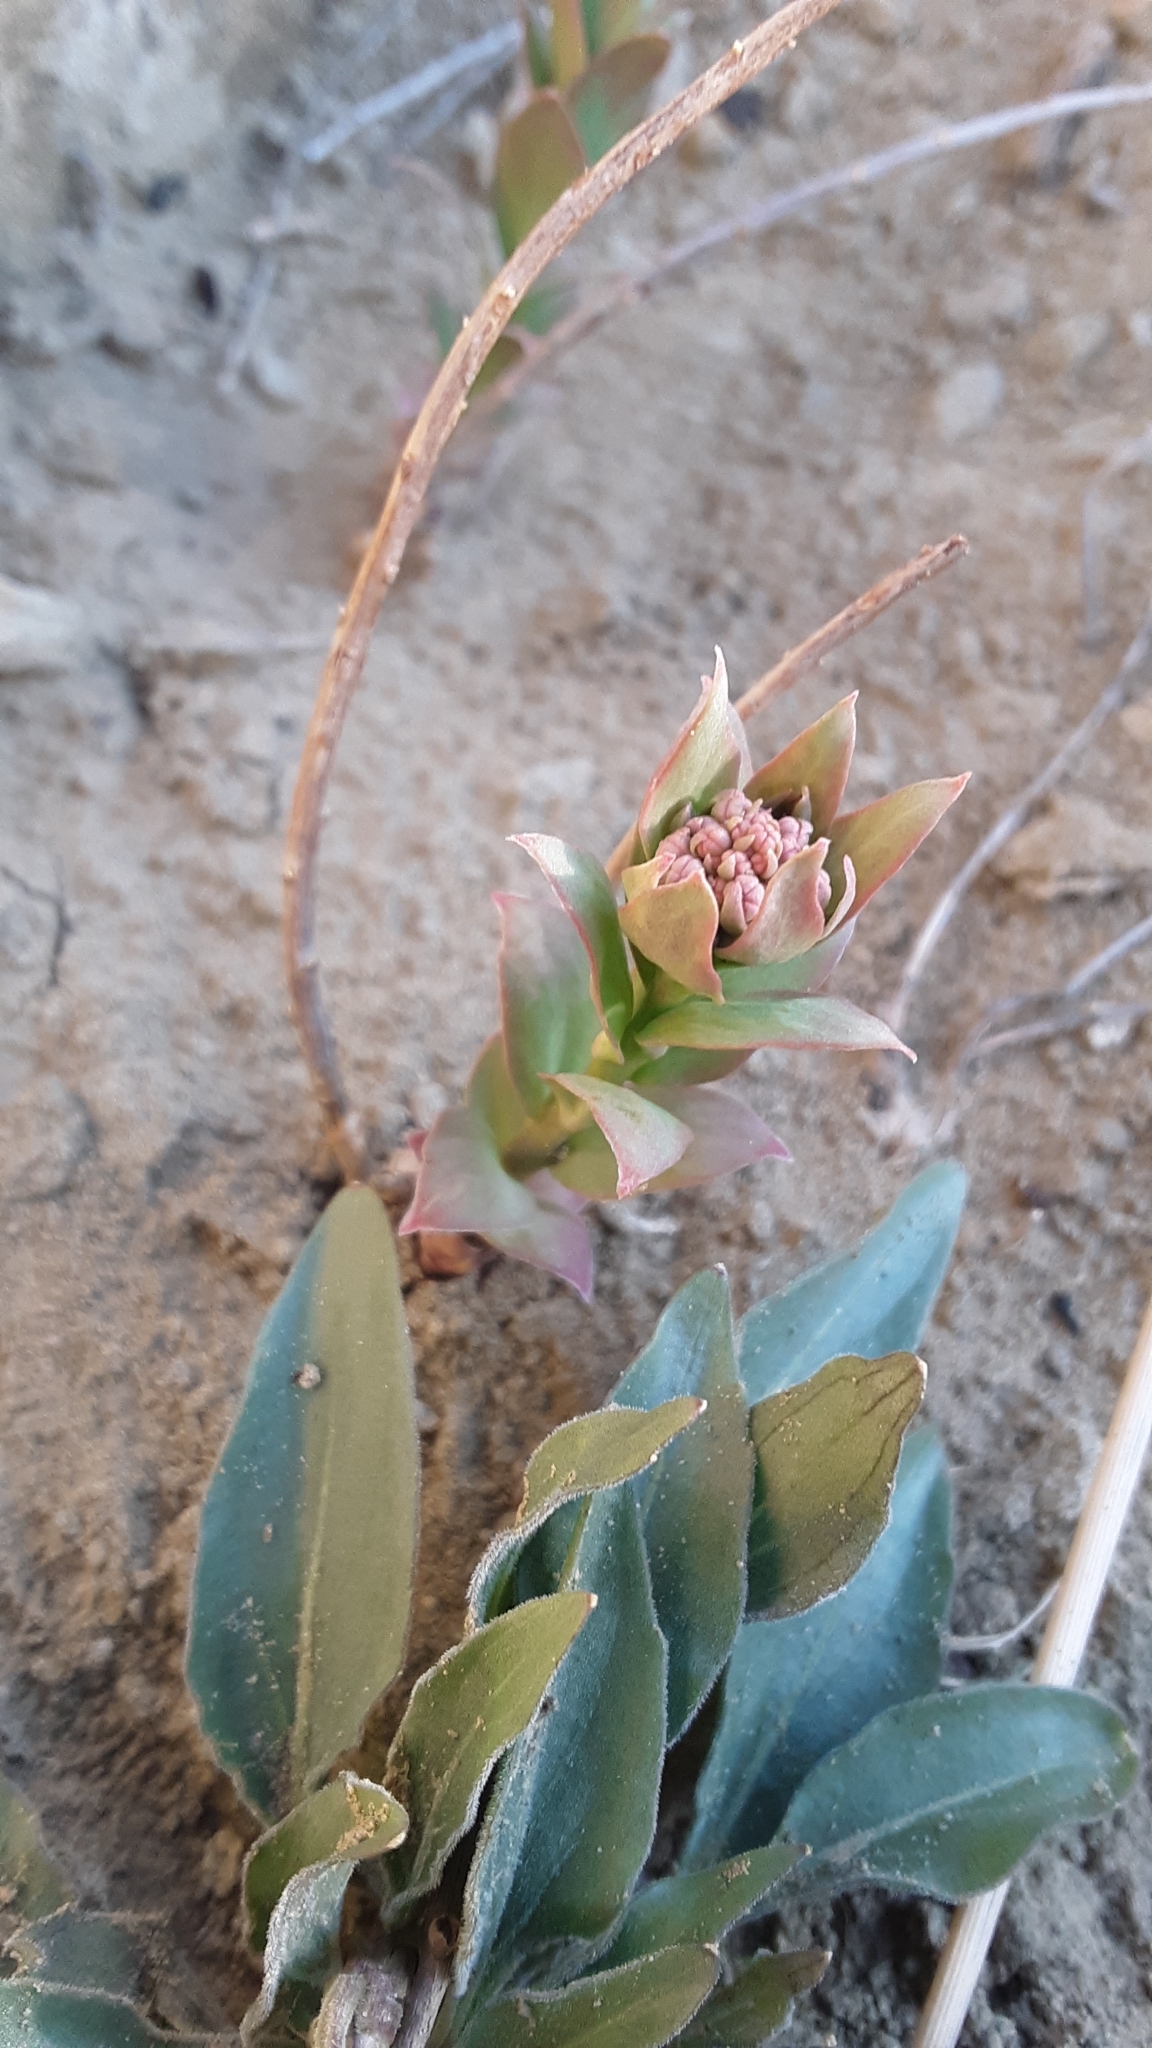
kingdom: Plantae
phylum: Tracheophyta
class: Magnoliopsida
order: Santalales
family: Comandraceae
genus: Comandra
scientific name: Comandra umbellata
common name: Bastard toadflax
